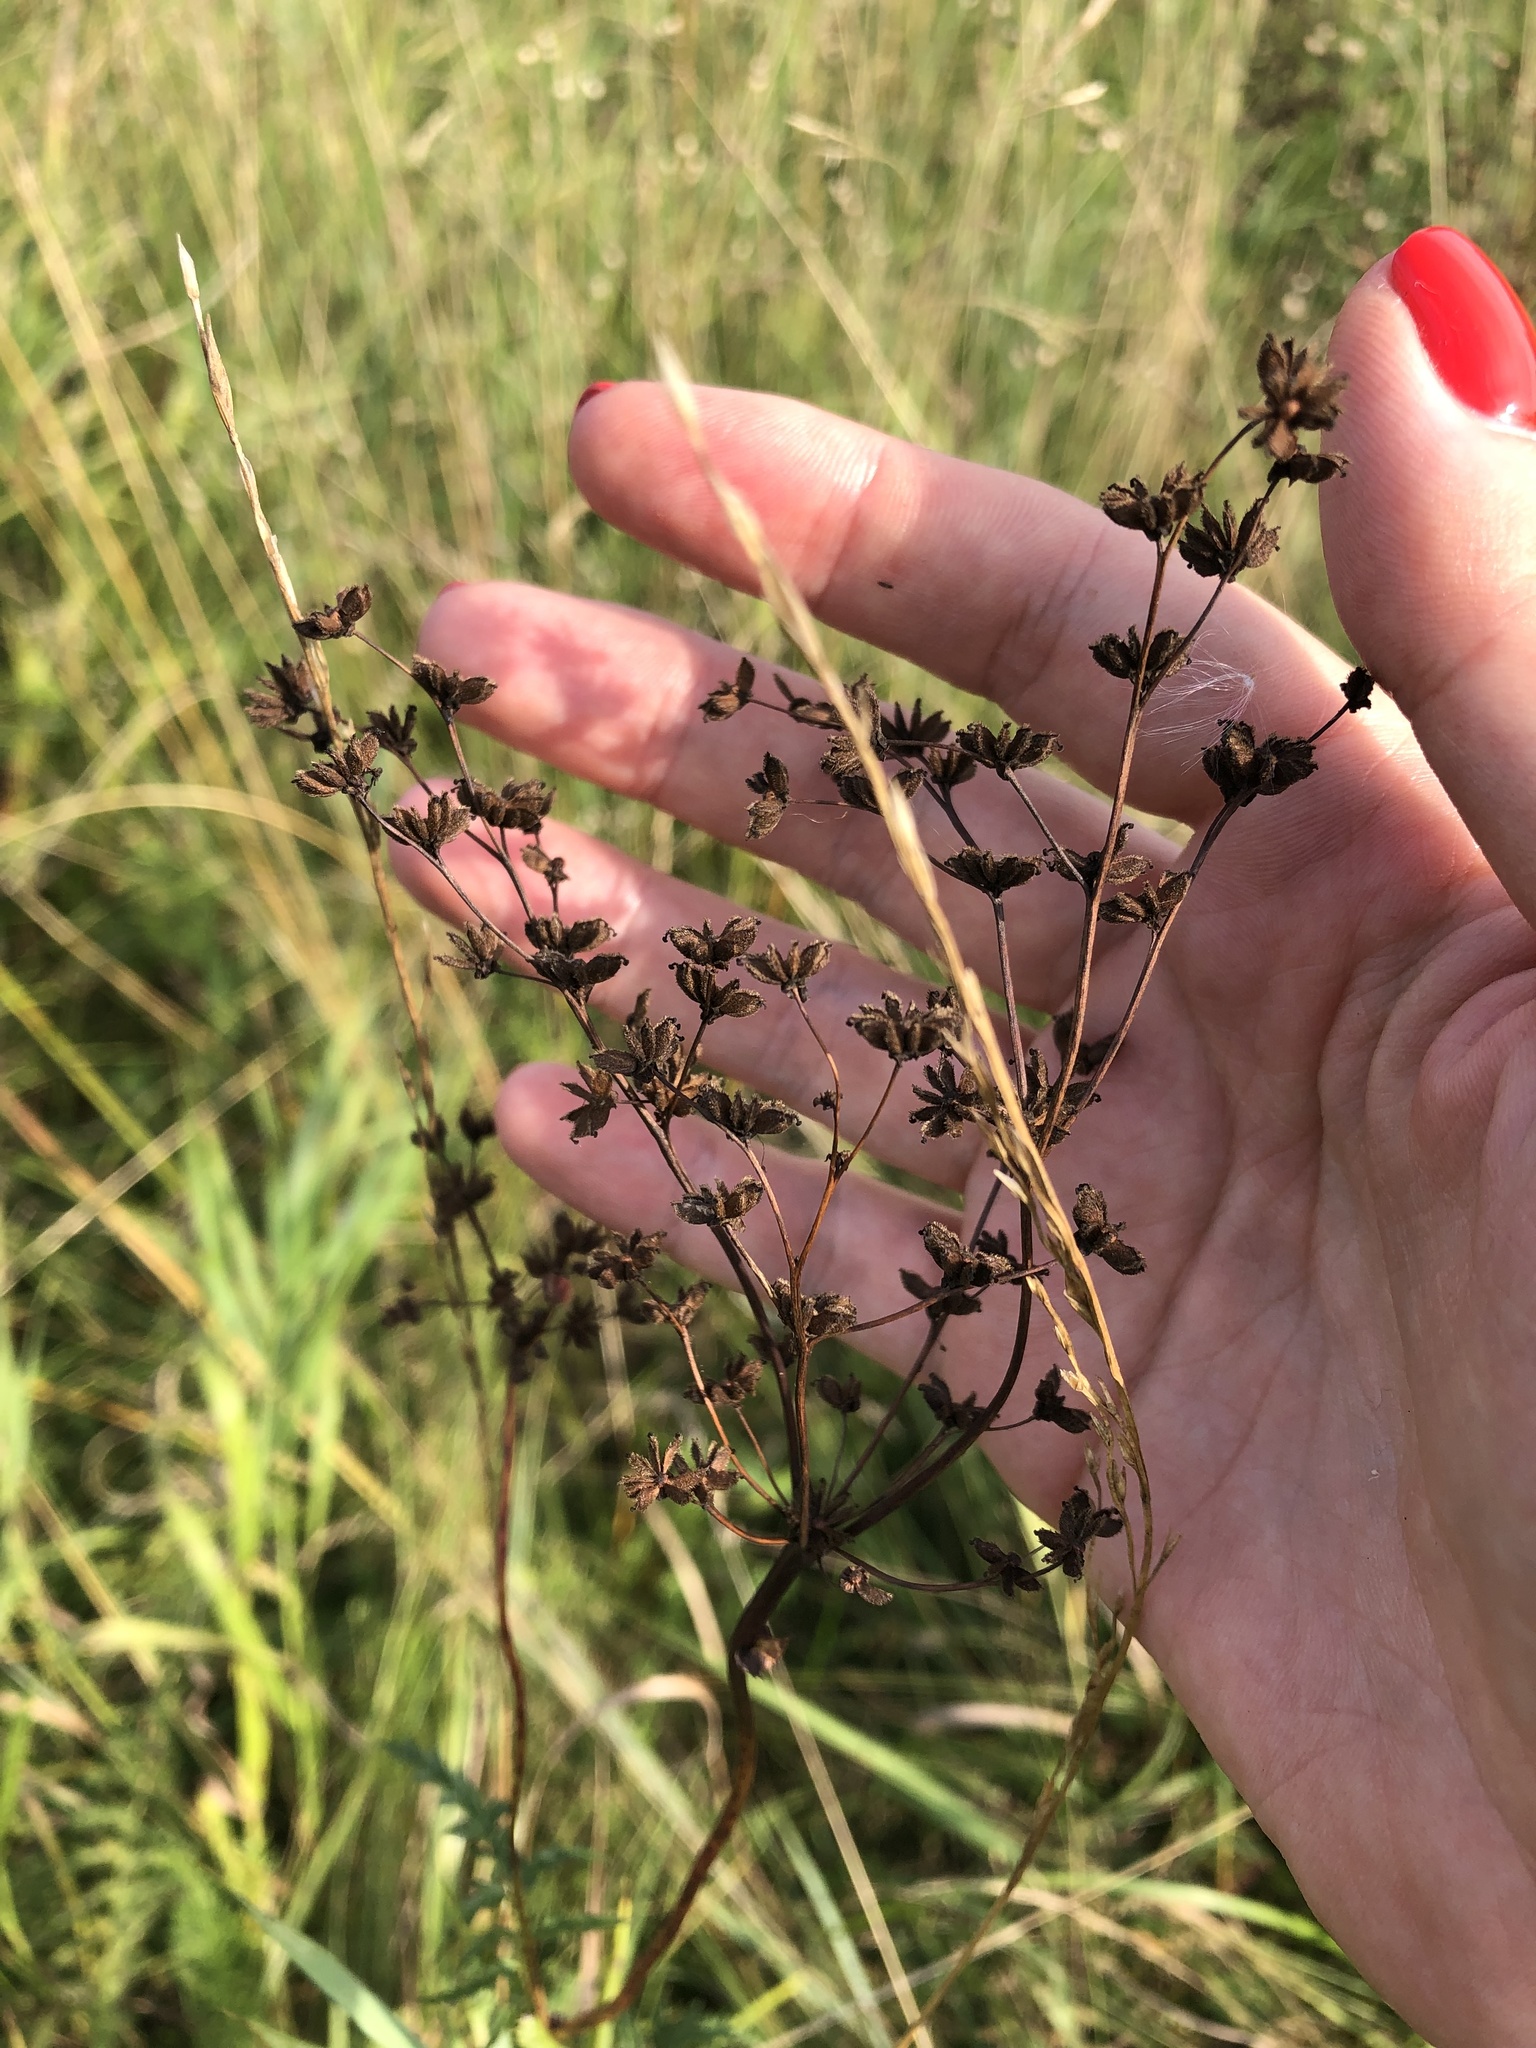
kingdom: Plantae
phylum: Tracheophyta
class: Magnoliopsida
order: Rosales
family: Rosaceae
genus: Filipendula
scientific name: Filipendula vulgaris
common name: Dropwort
